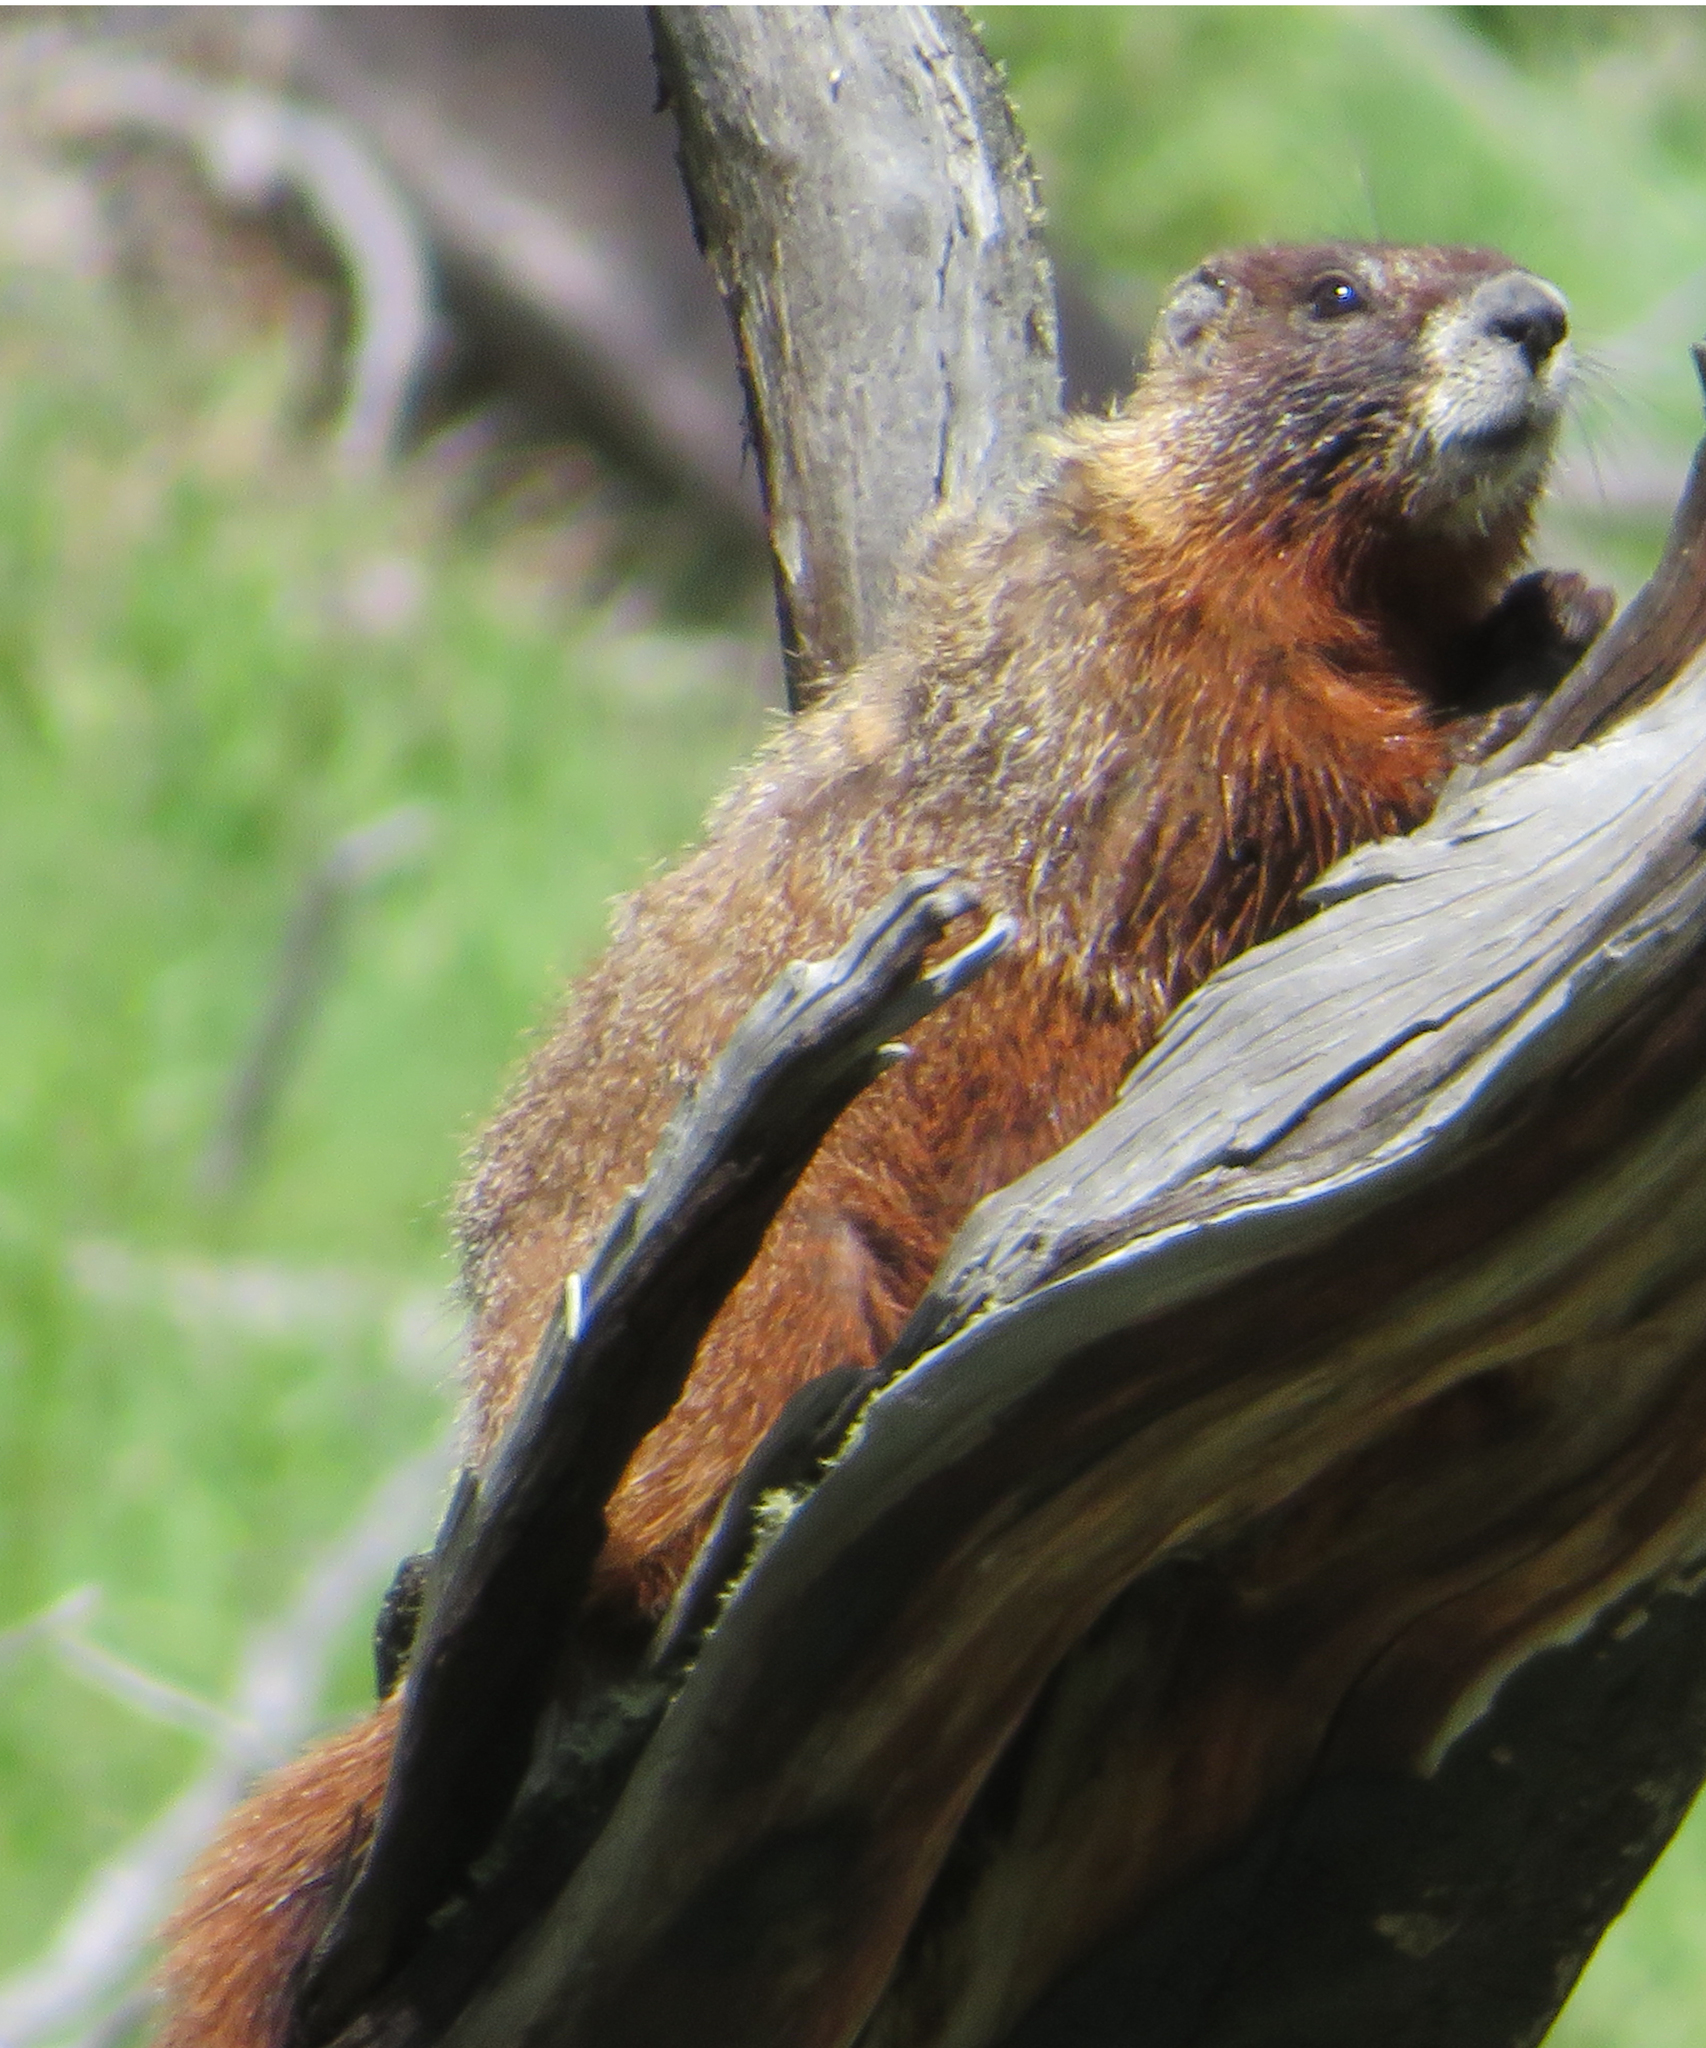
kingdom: Animalia
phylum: Chordata
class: Mammalia
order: Rodentia
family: Sciuridae
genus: Marmota
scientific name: Marmota flaviventris
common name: Yellow-bellied marmot
